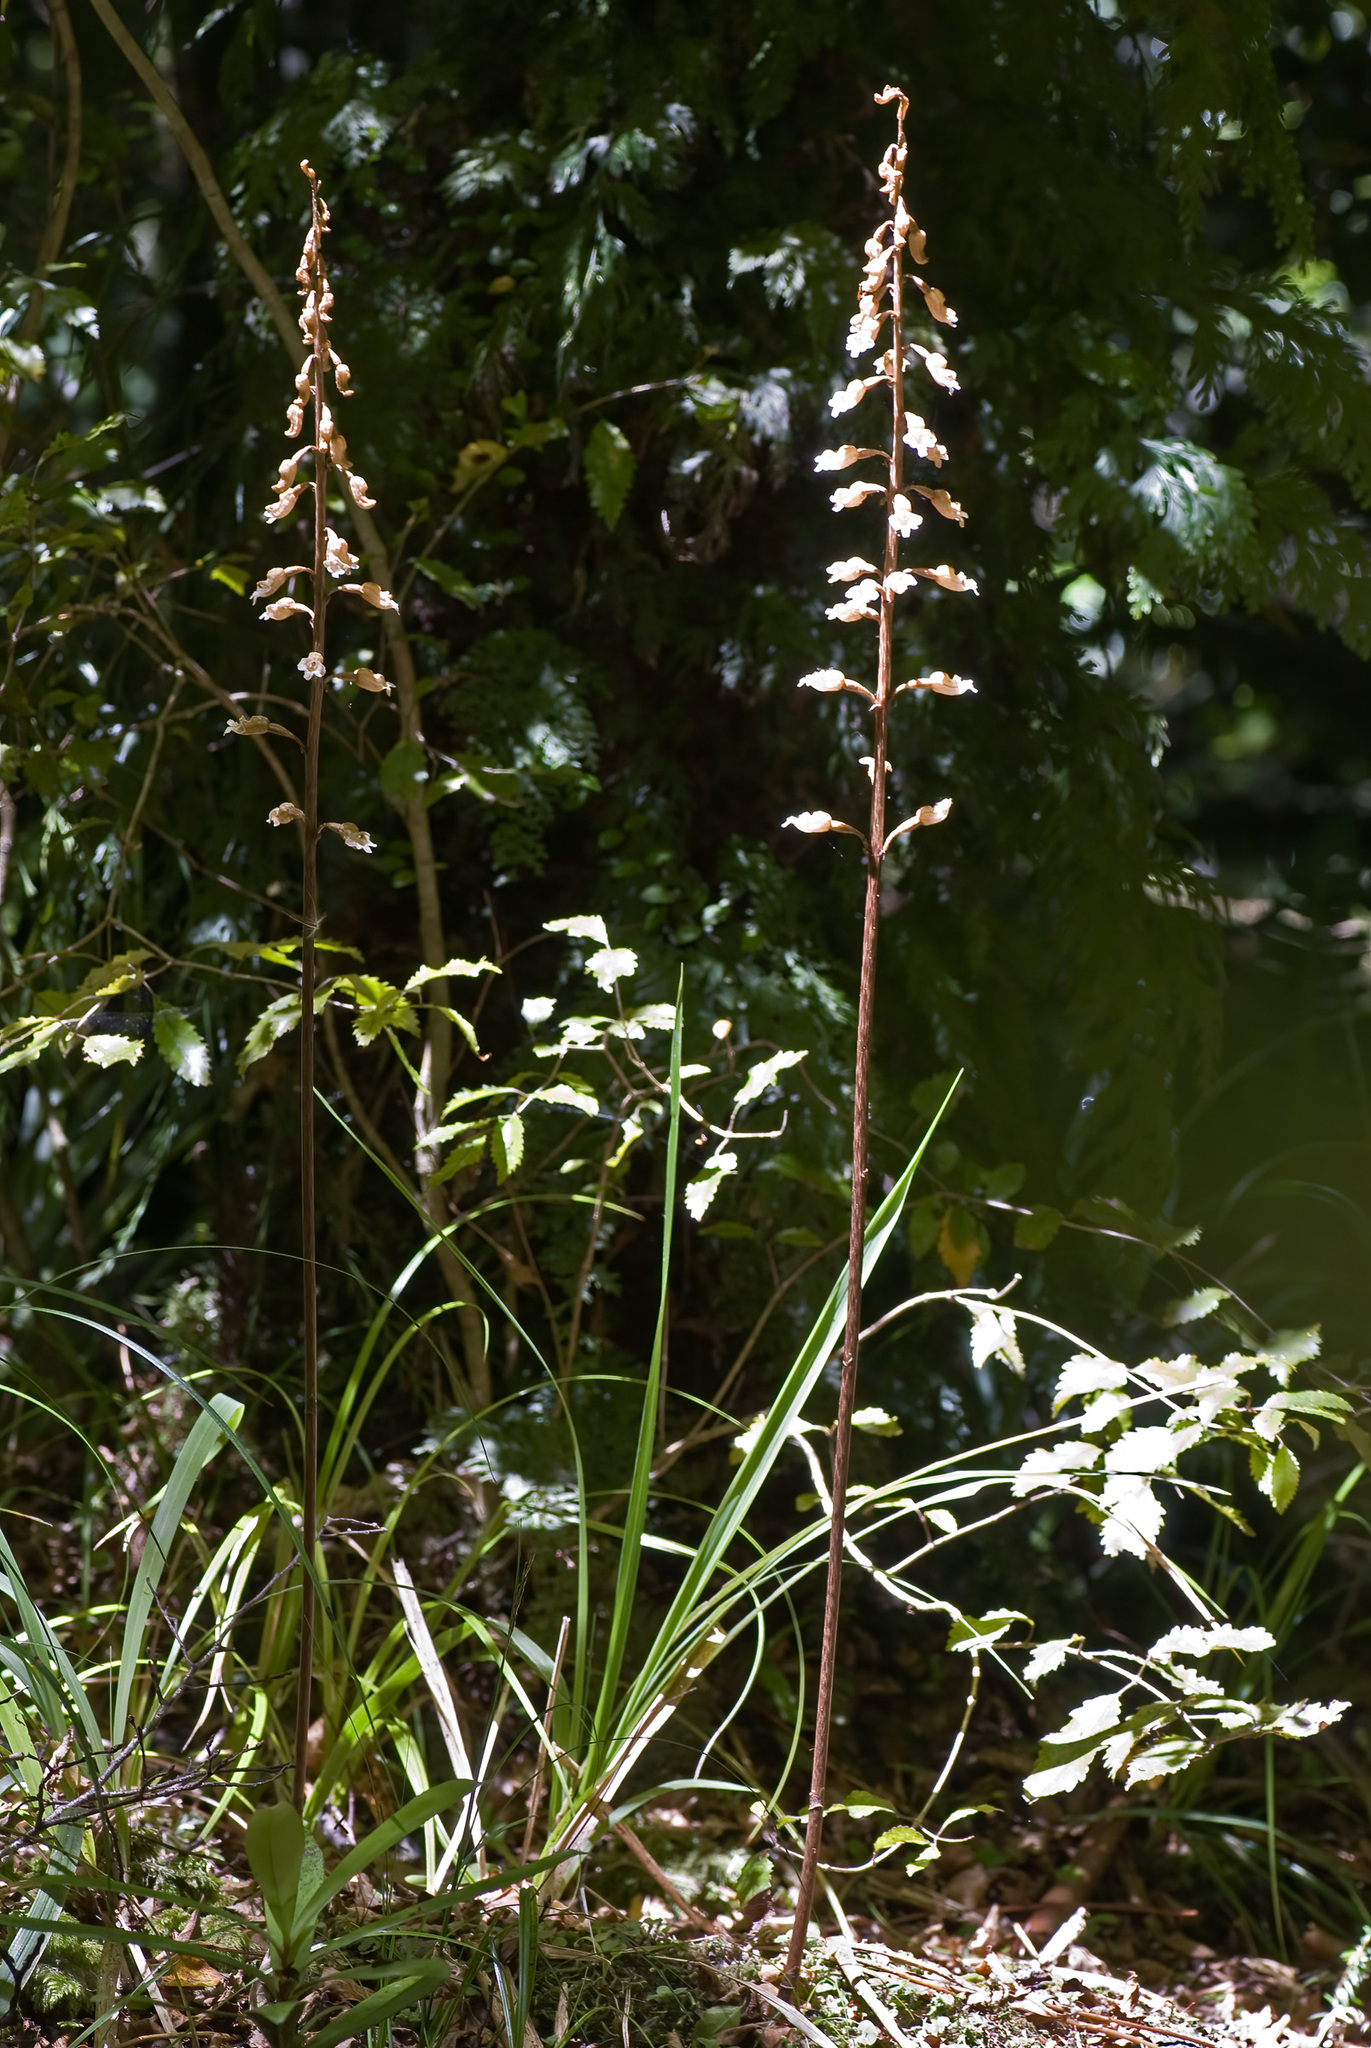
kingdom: Plantae
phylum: Tracheophyta
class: Liliopsida
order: Asparagales
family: Orchidaceae
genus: Gastrodia
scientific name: Gastrodia cunninghamii
